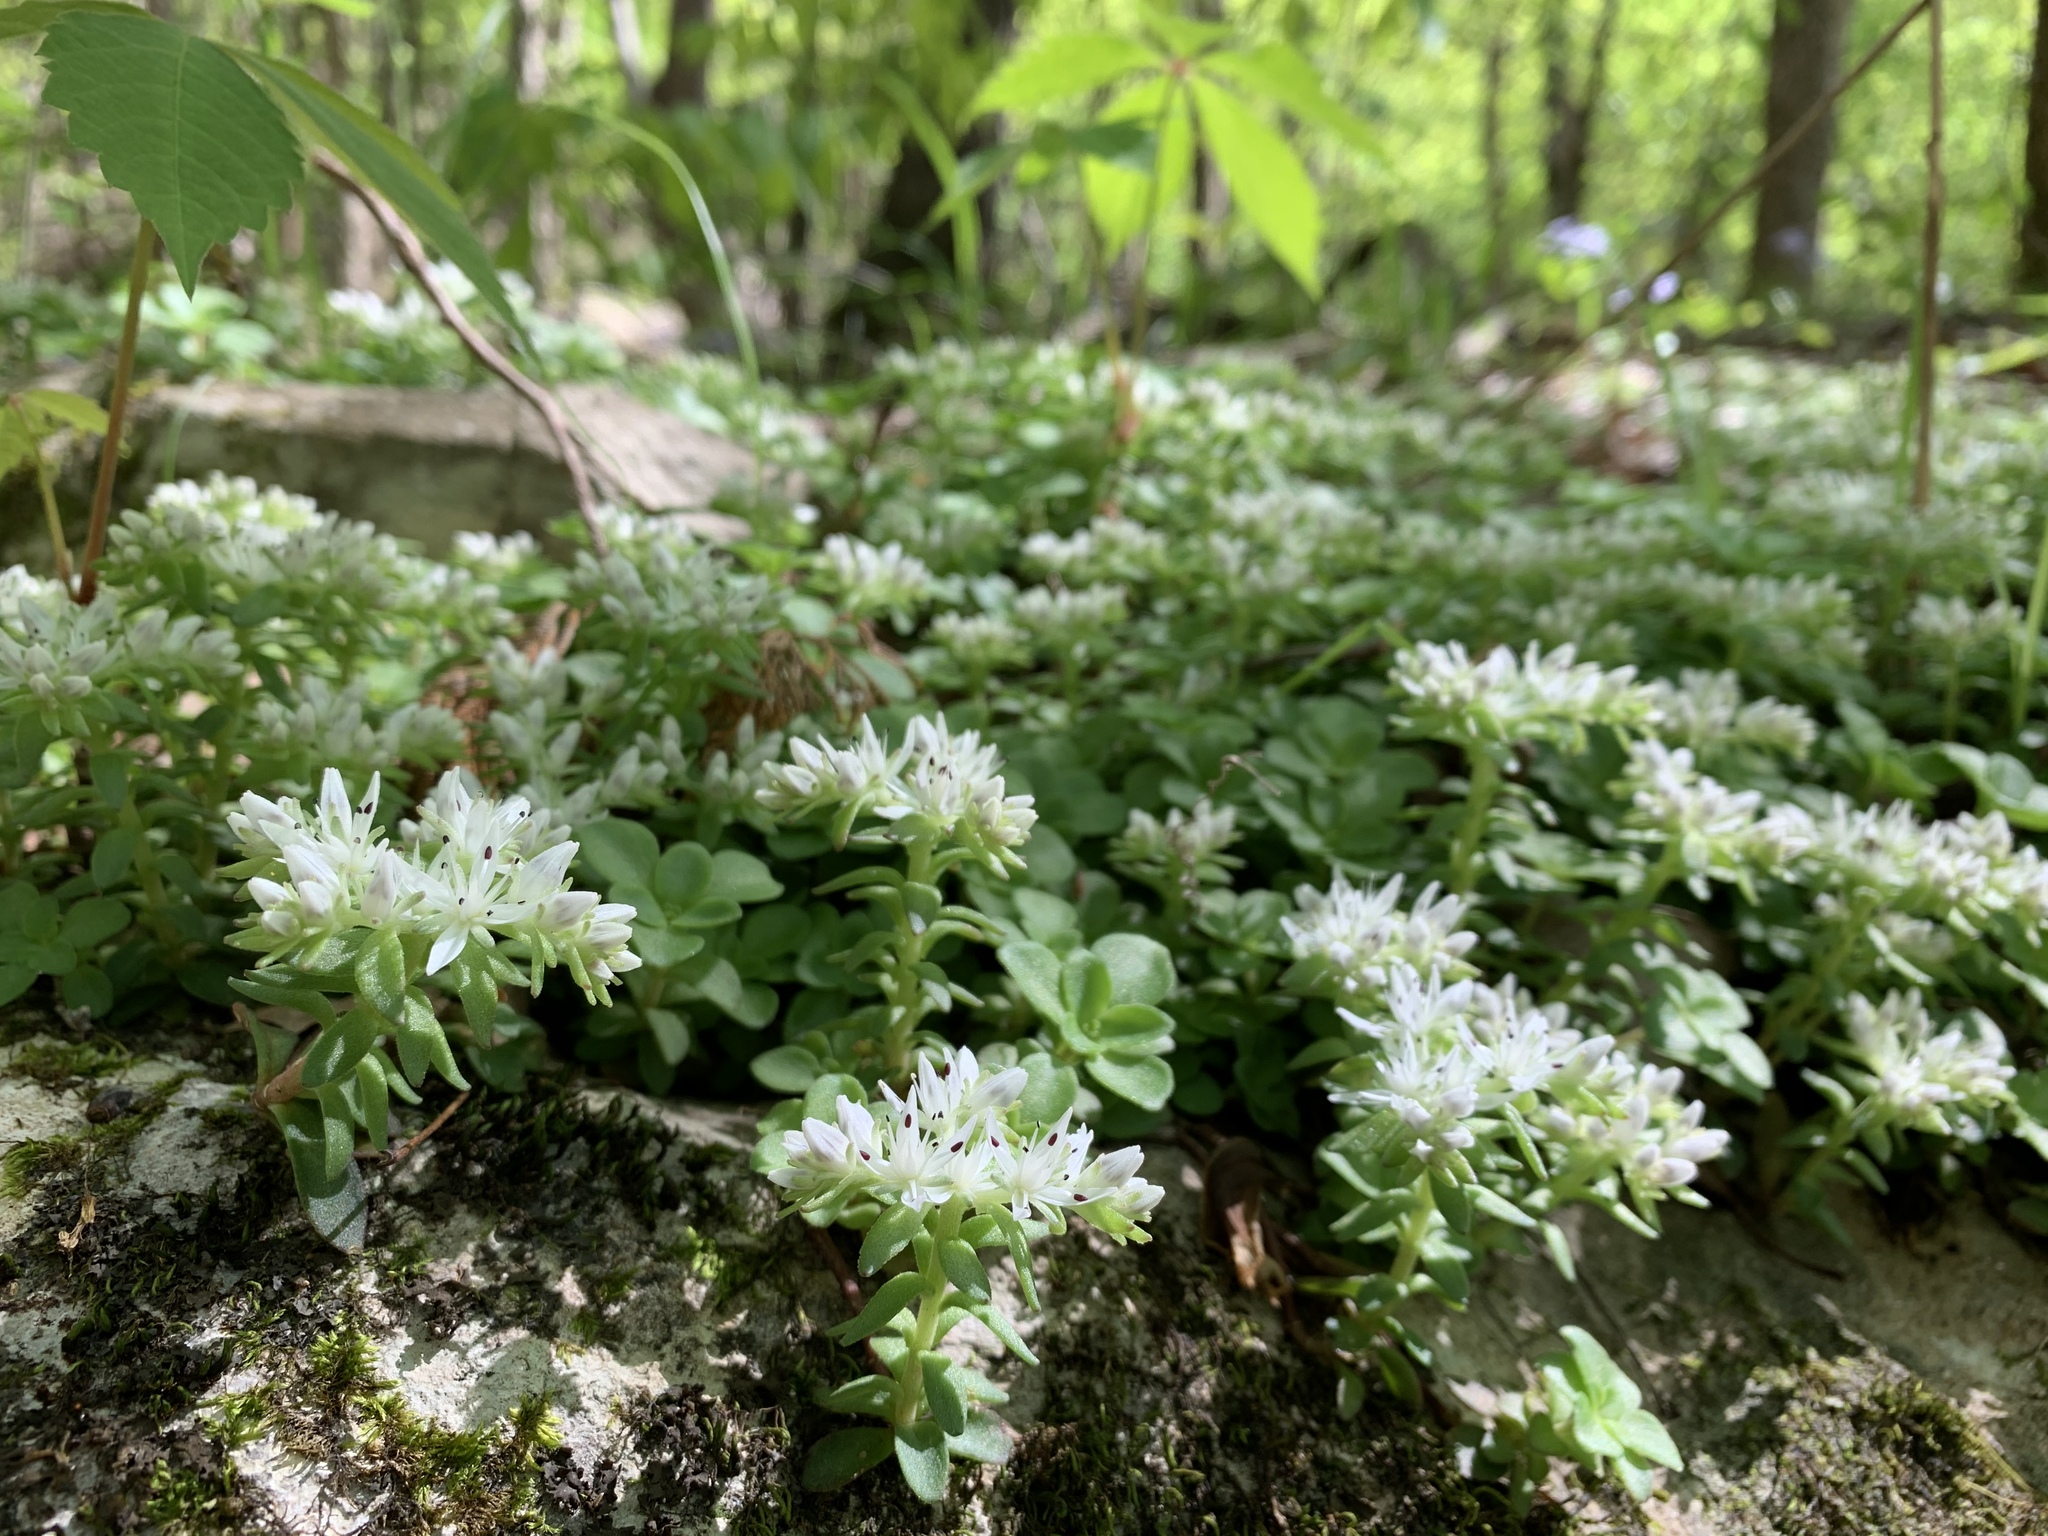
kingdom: Plantae
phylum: Tracheophyta
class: Magnoliopsida
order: Saxifragales
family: Crassulaceae
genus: Sedum
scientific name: Sedum ternatum
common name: Wild stonecrop
